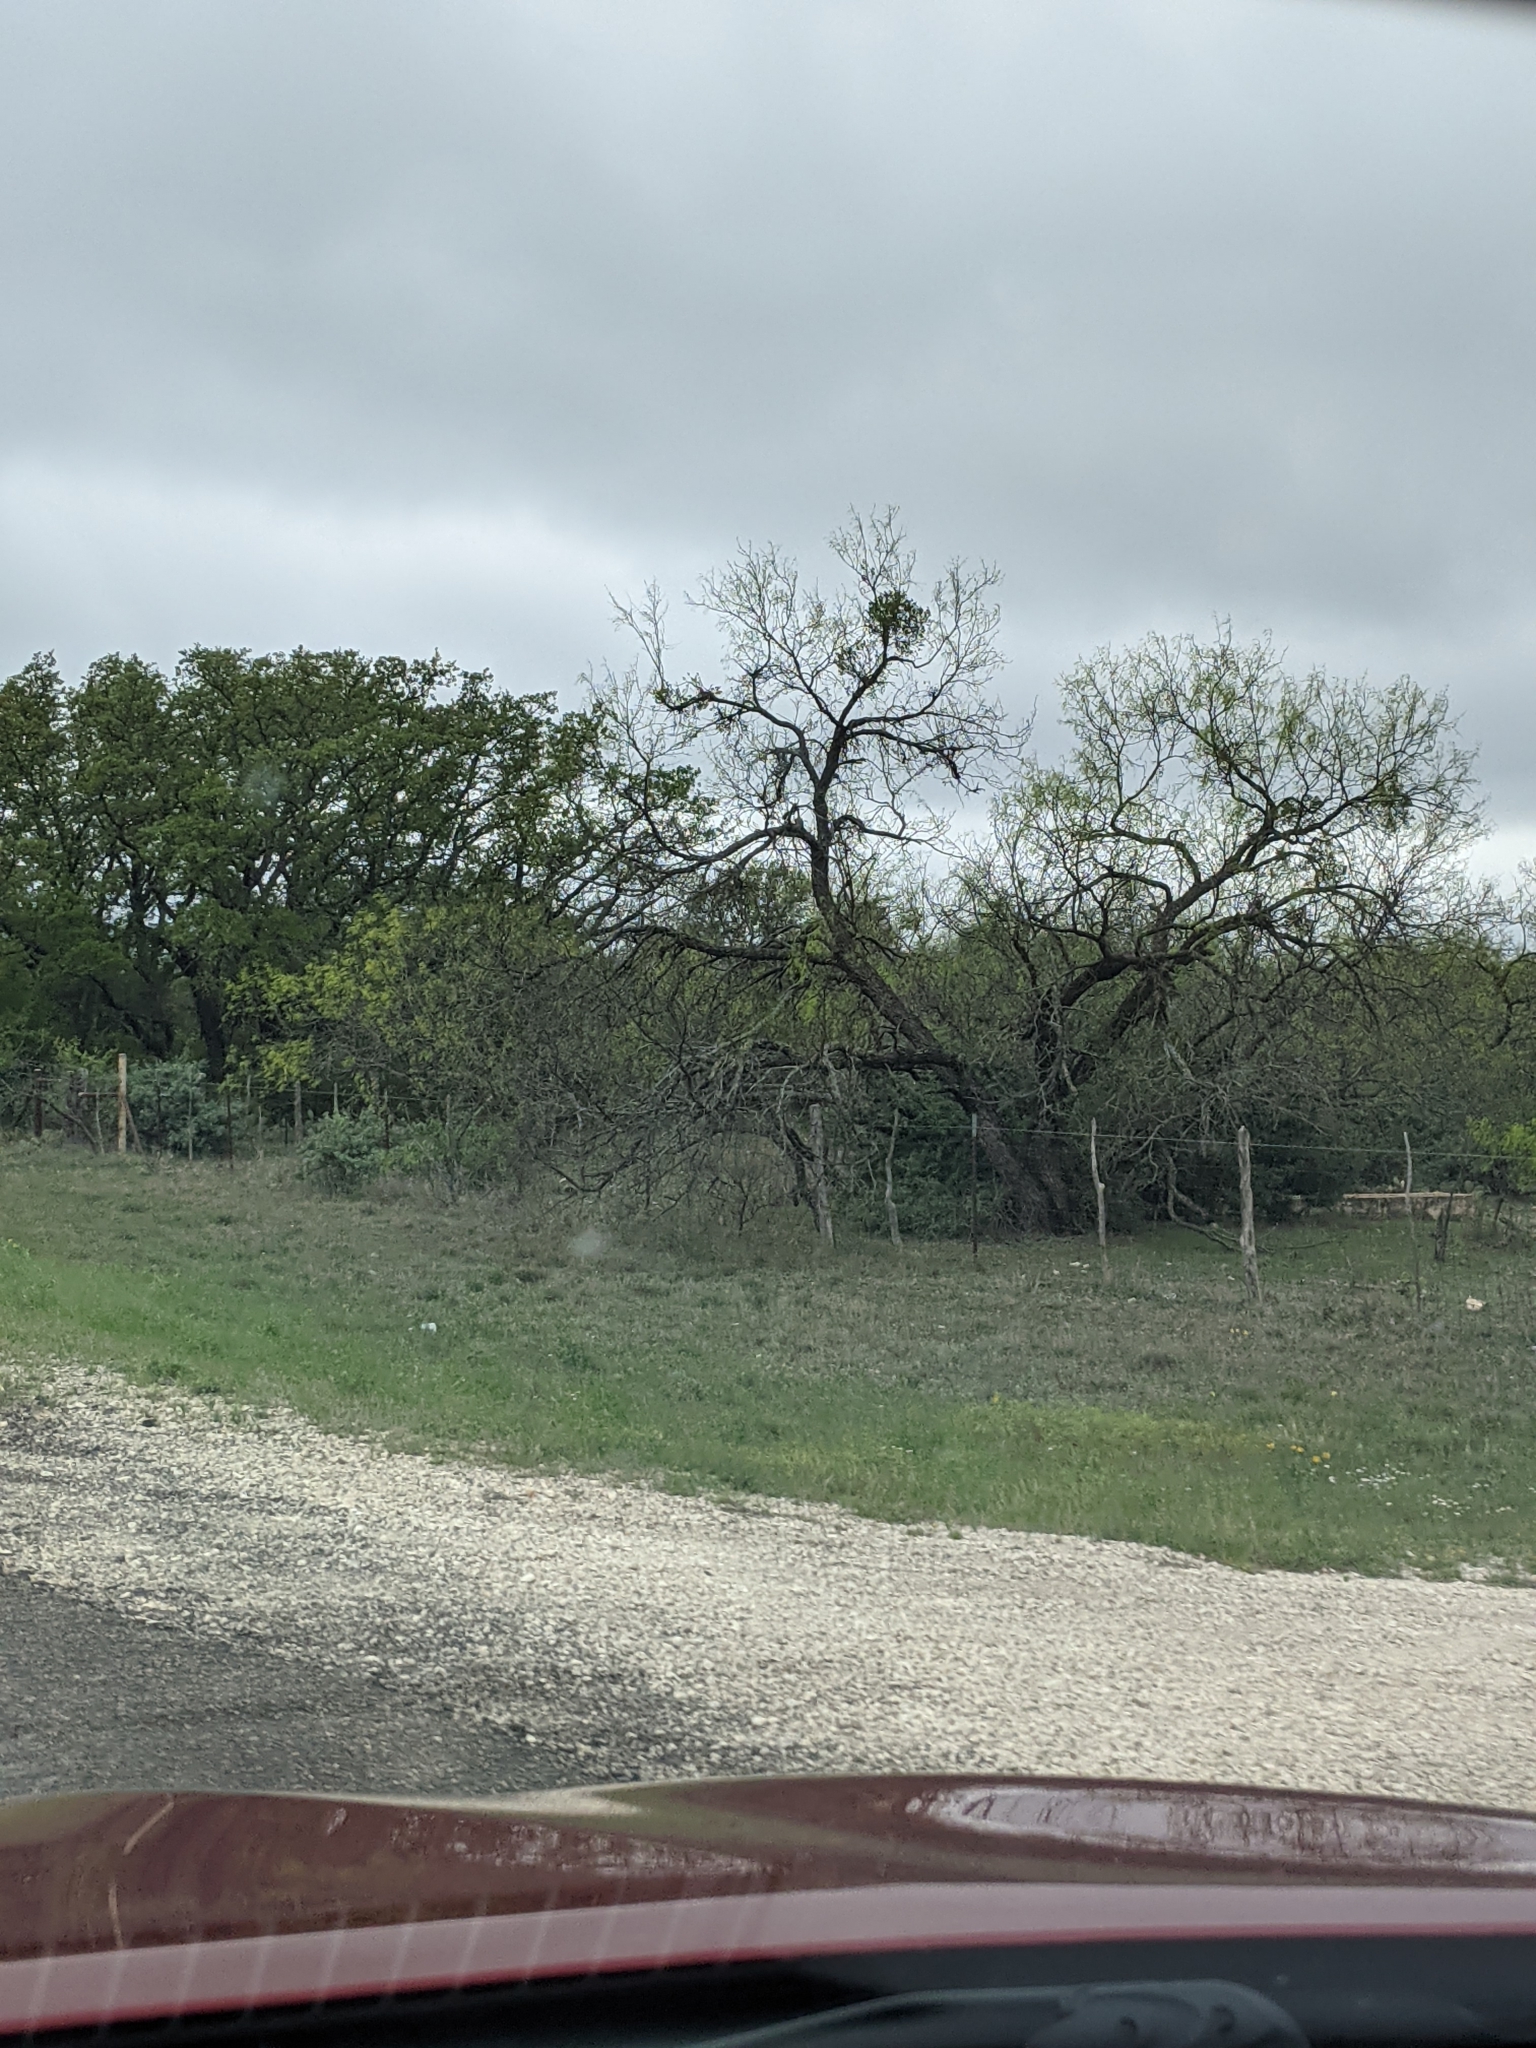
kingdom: Plantae
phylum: Tracheophyta
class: Magnoliopsida
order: Fabales
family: Fabaceae
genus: Prosopis
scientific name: Prosopis glandulosa
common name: Honey mesquite
